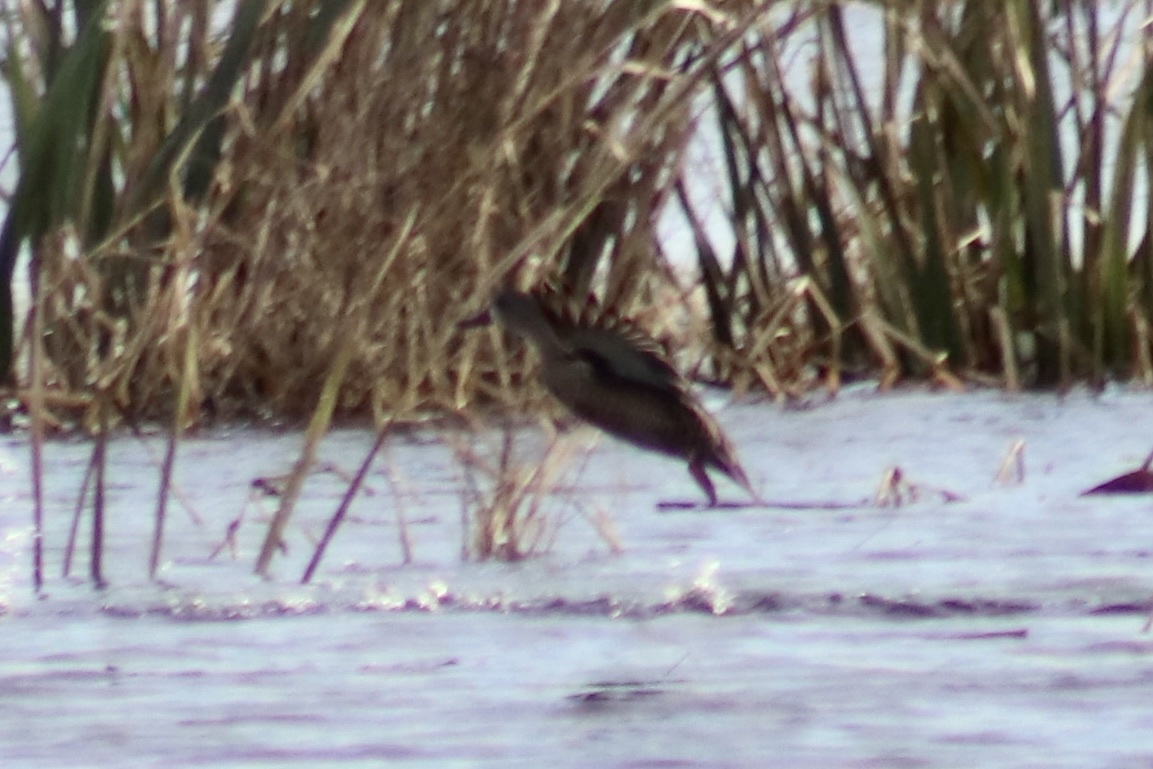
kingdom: Animalia
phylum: Chordata
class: Aves
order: Anseriformes
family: Anatidae
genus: Spatula
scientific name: Spatula discors
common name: Blue-winged teal
